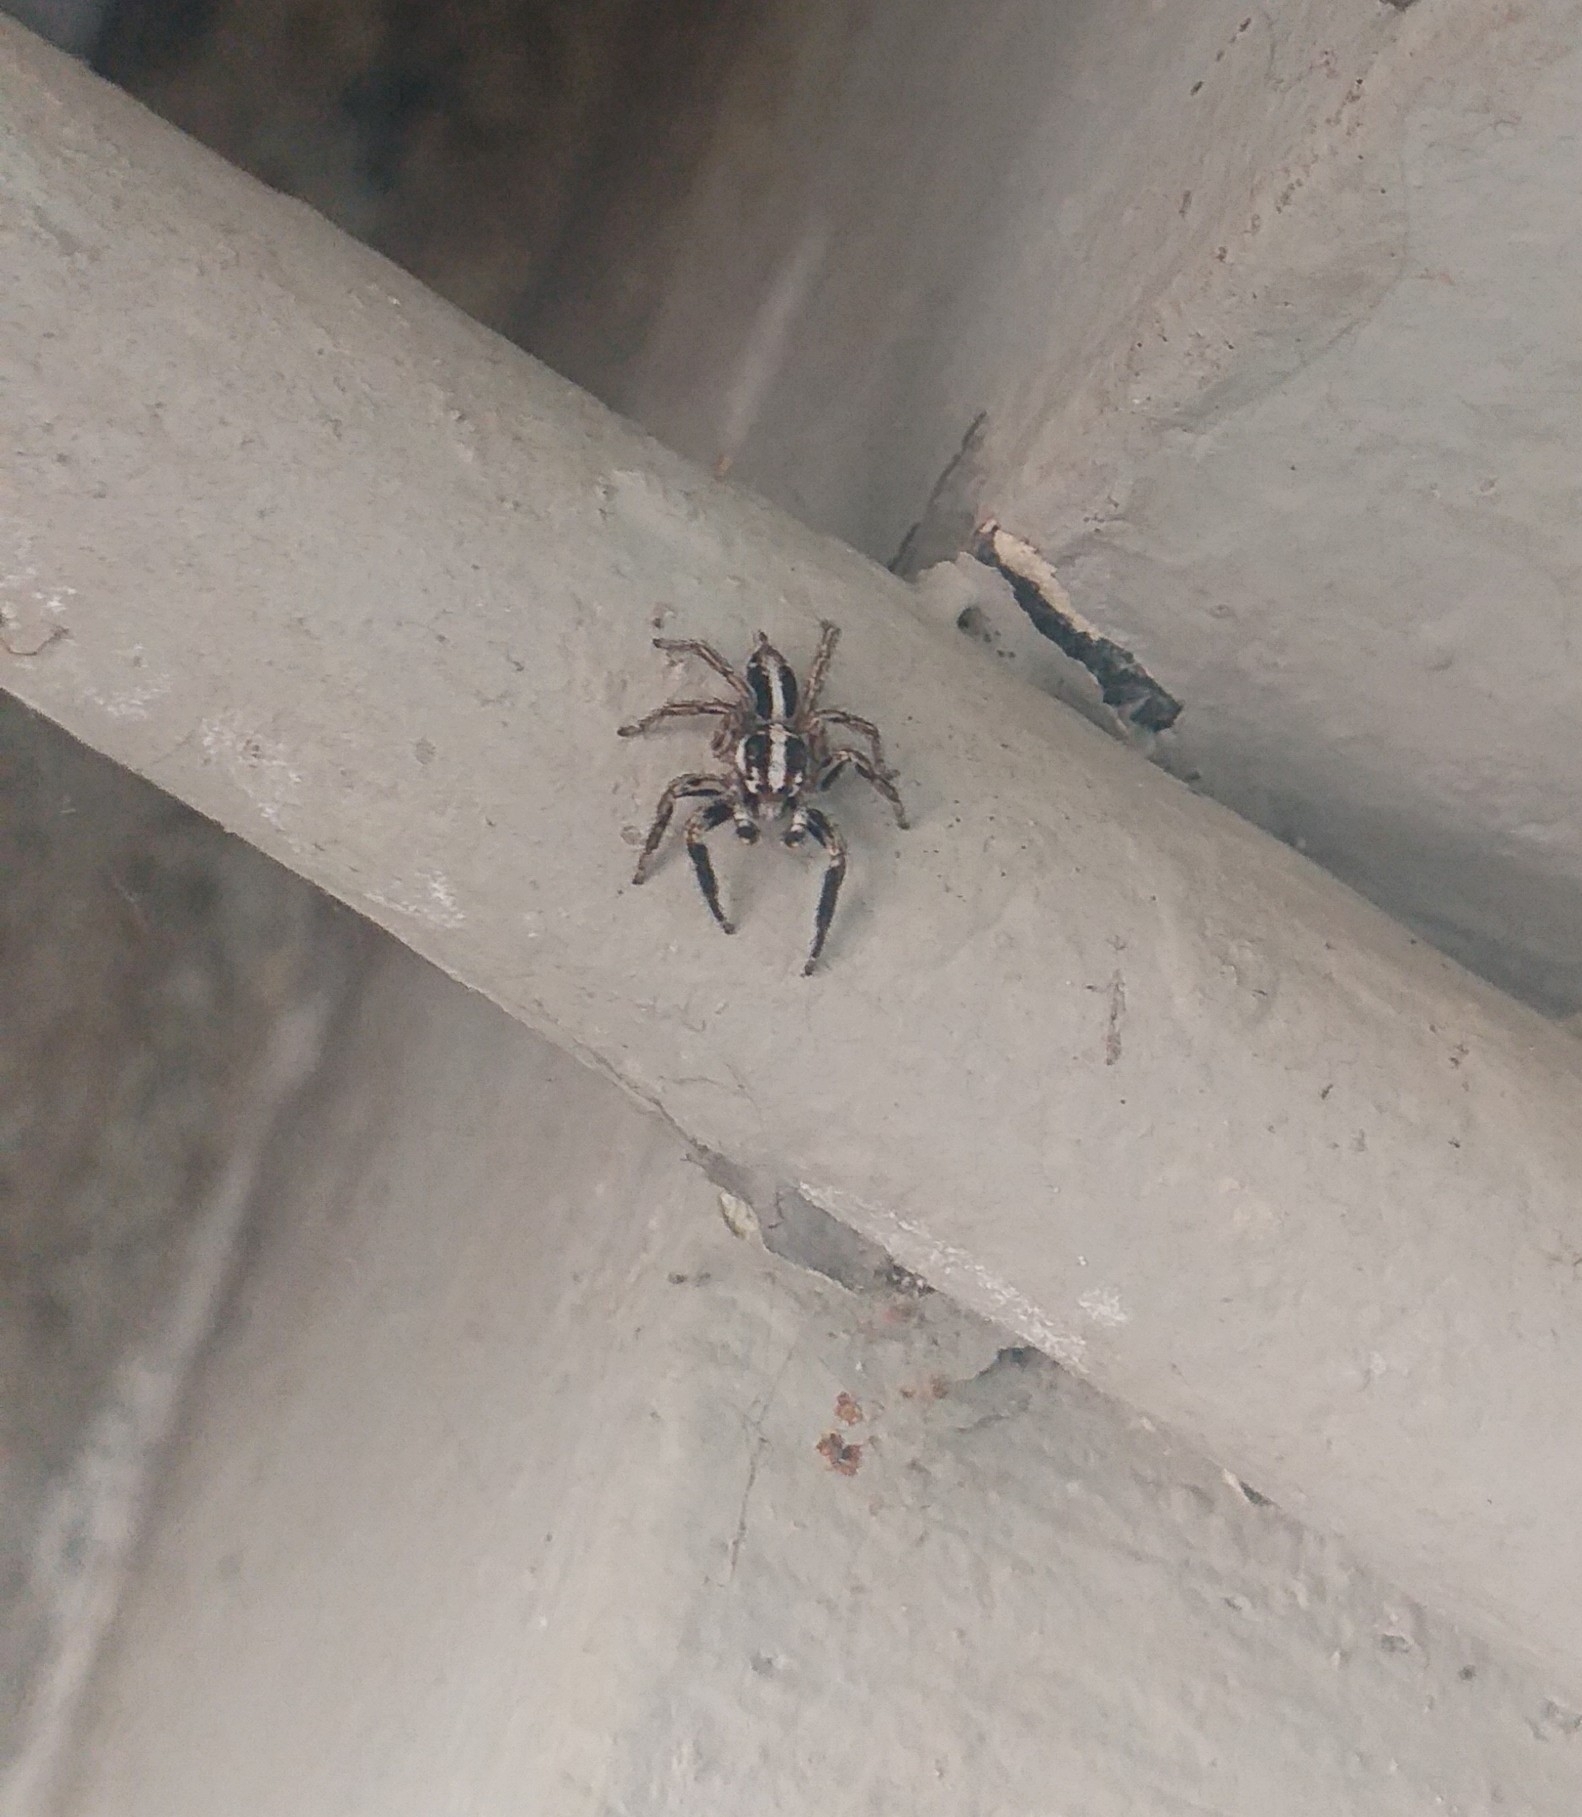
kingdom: Animalia
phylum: Arthropoda
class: Arachnida
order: Araneae
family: Salticidae
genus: Plexippus
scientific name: Plexippus paykulli
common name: Pantropical jumper
